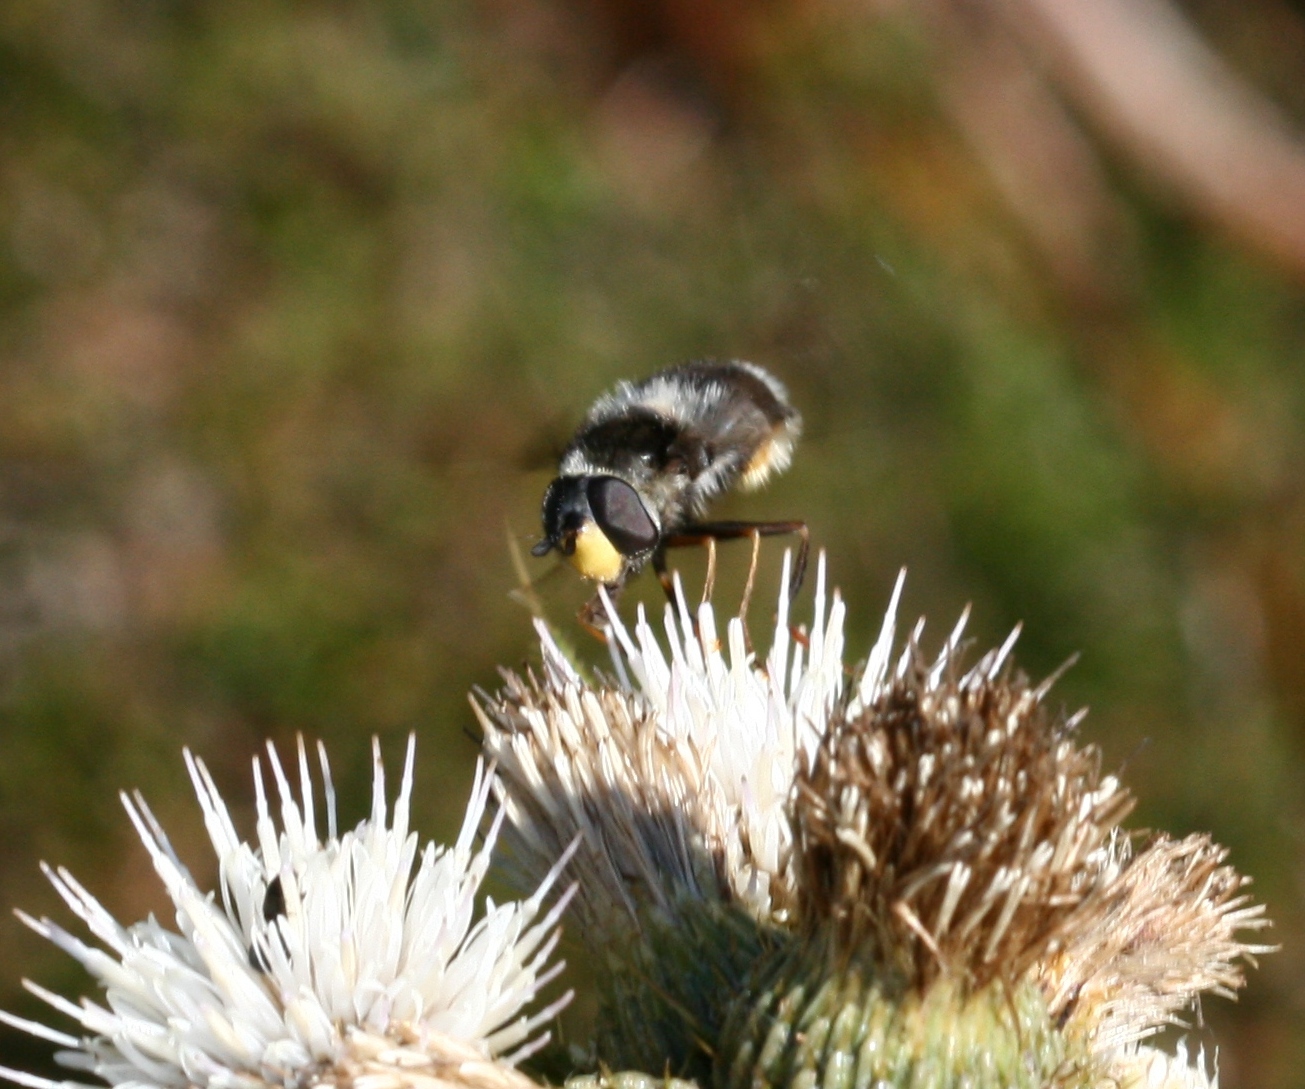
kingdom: Animalia
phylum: Arthropoda
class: Insecta
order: Diptera
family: Syrphidae
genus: Eriozona
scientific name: Eriozona syrphoides
